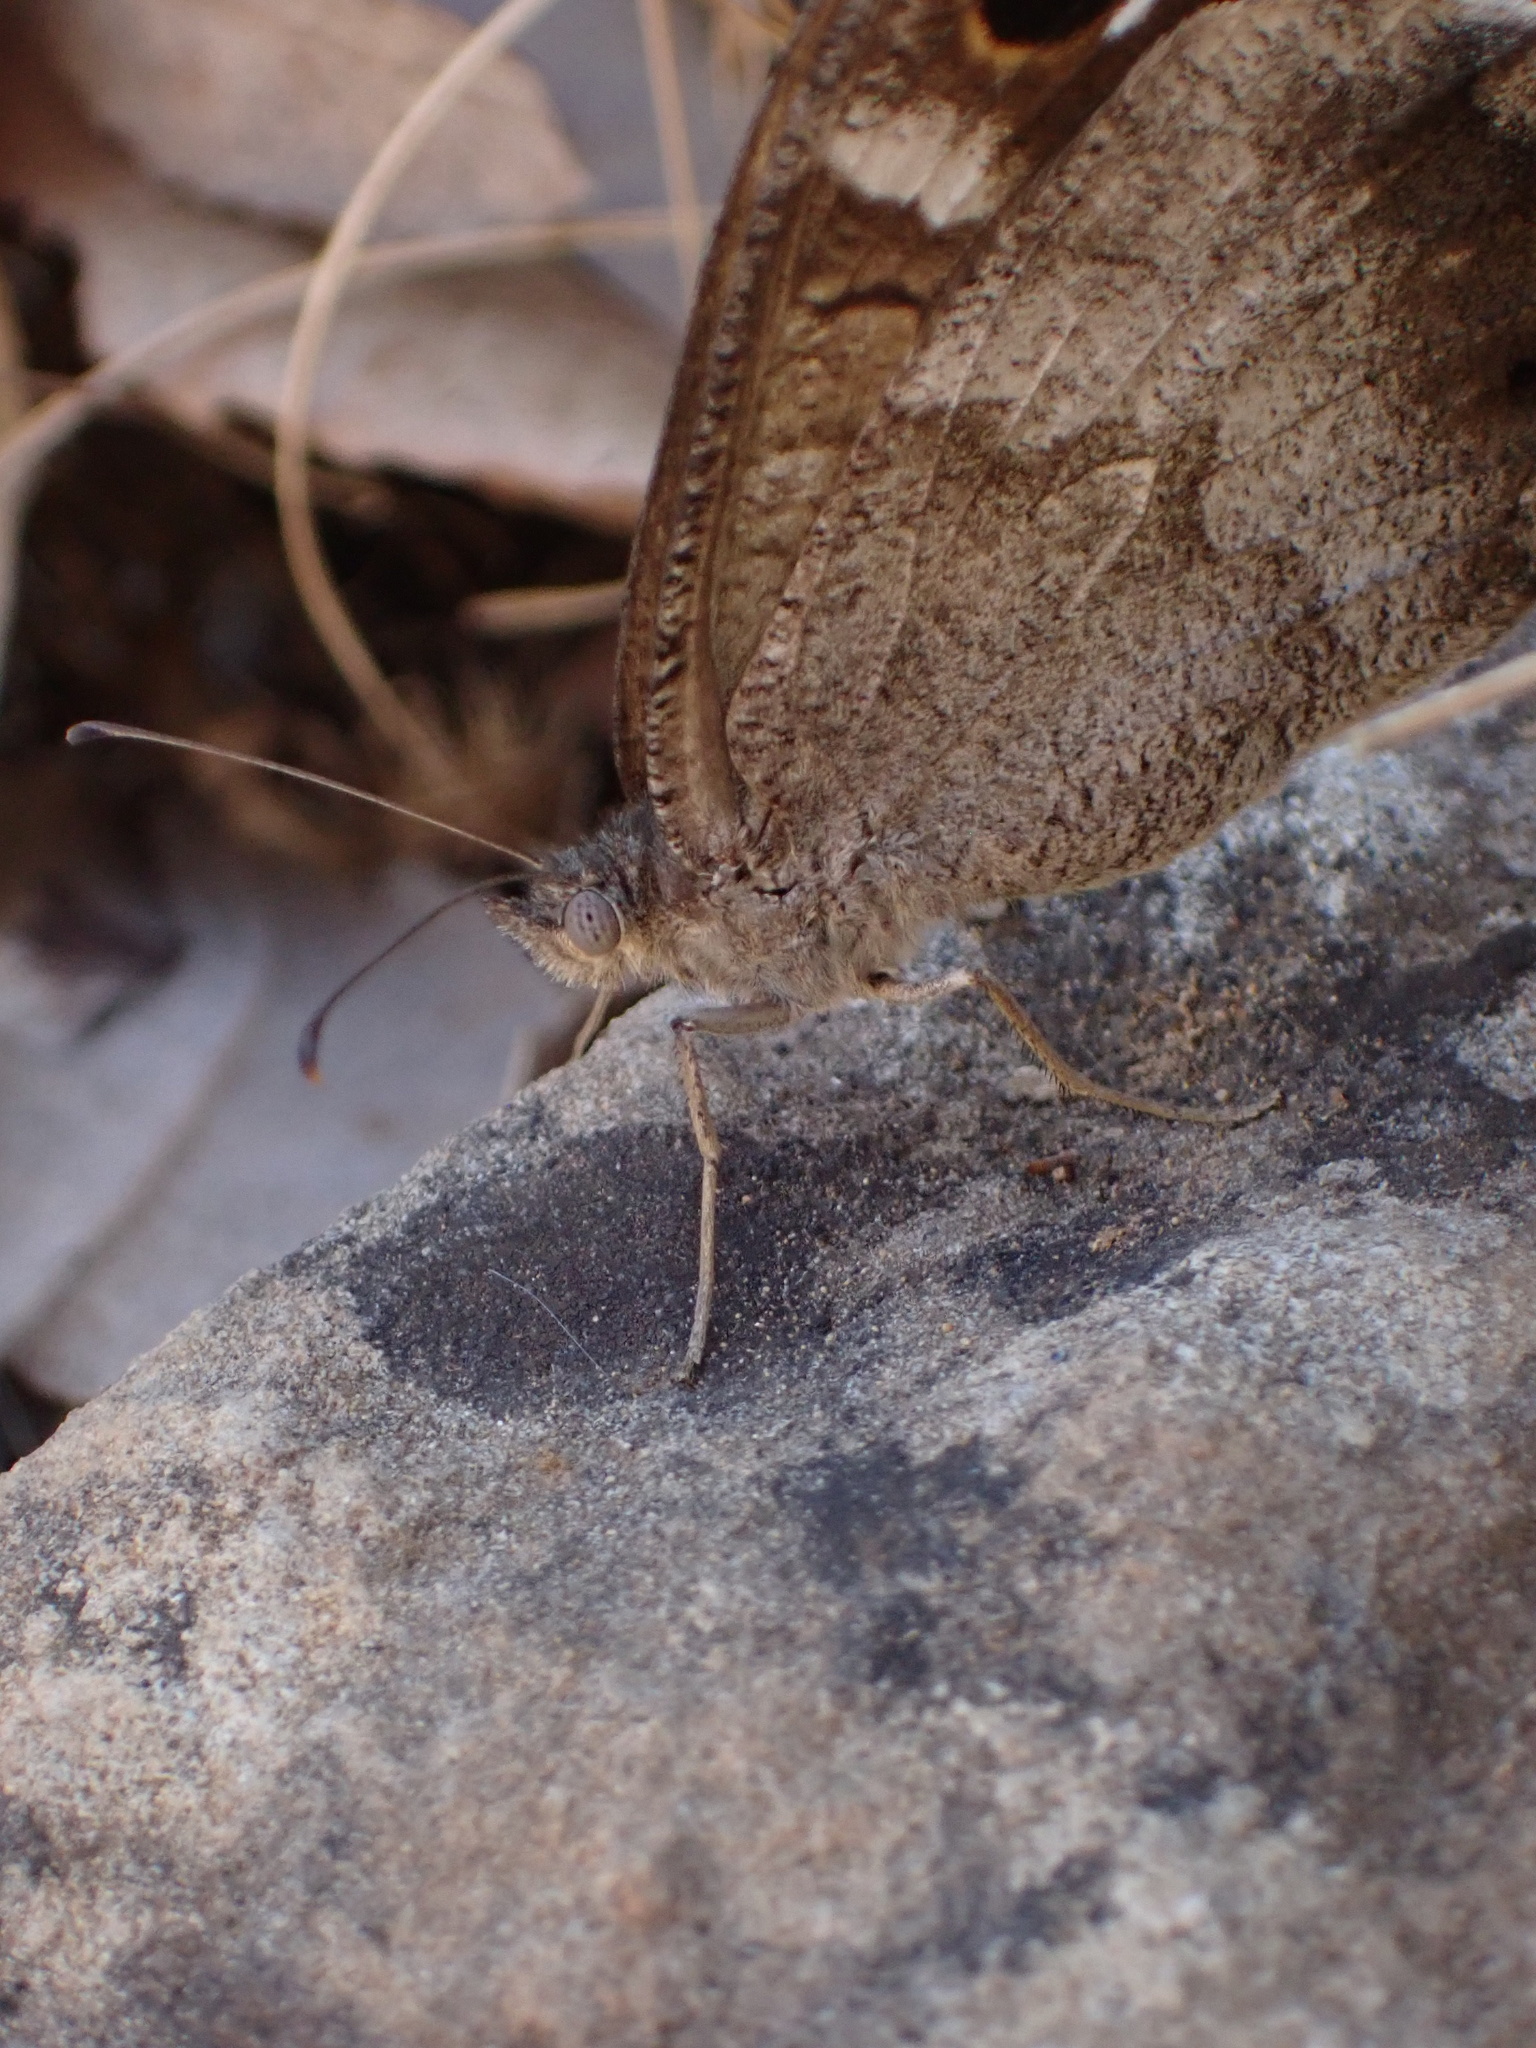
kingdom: Animalia
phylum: Arthropoda
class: Insecta
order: Lepidoptera
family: Nymphalidae
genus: Hipparchia
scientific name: Hipparchia statilinus
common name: Tree grayling
